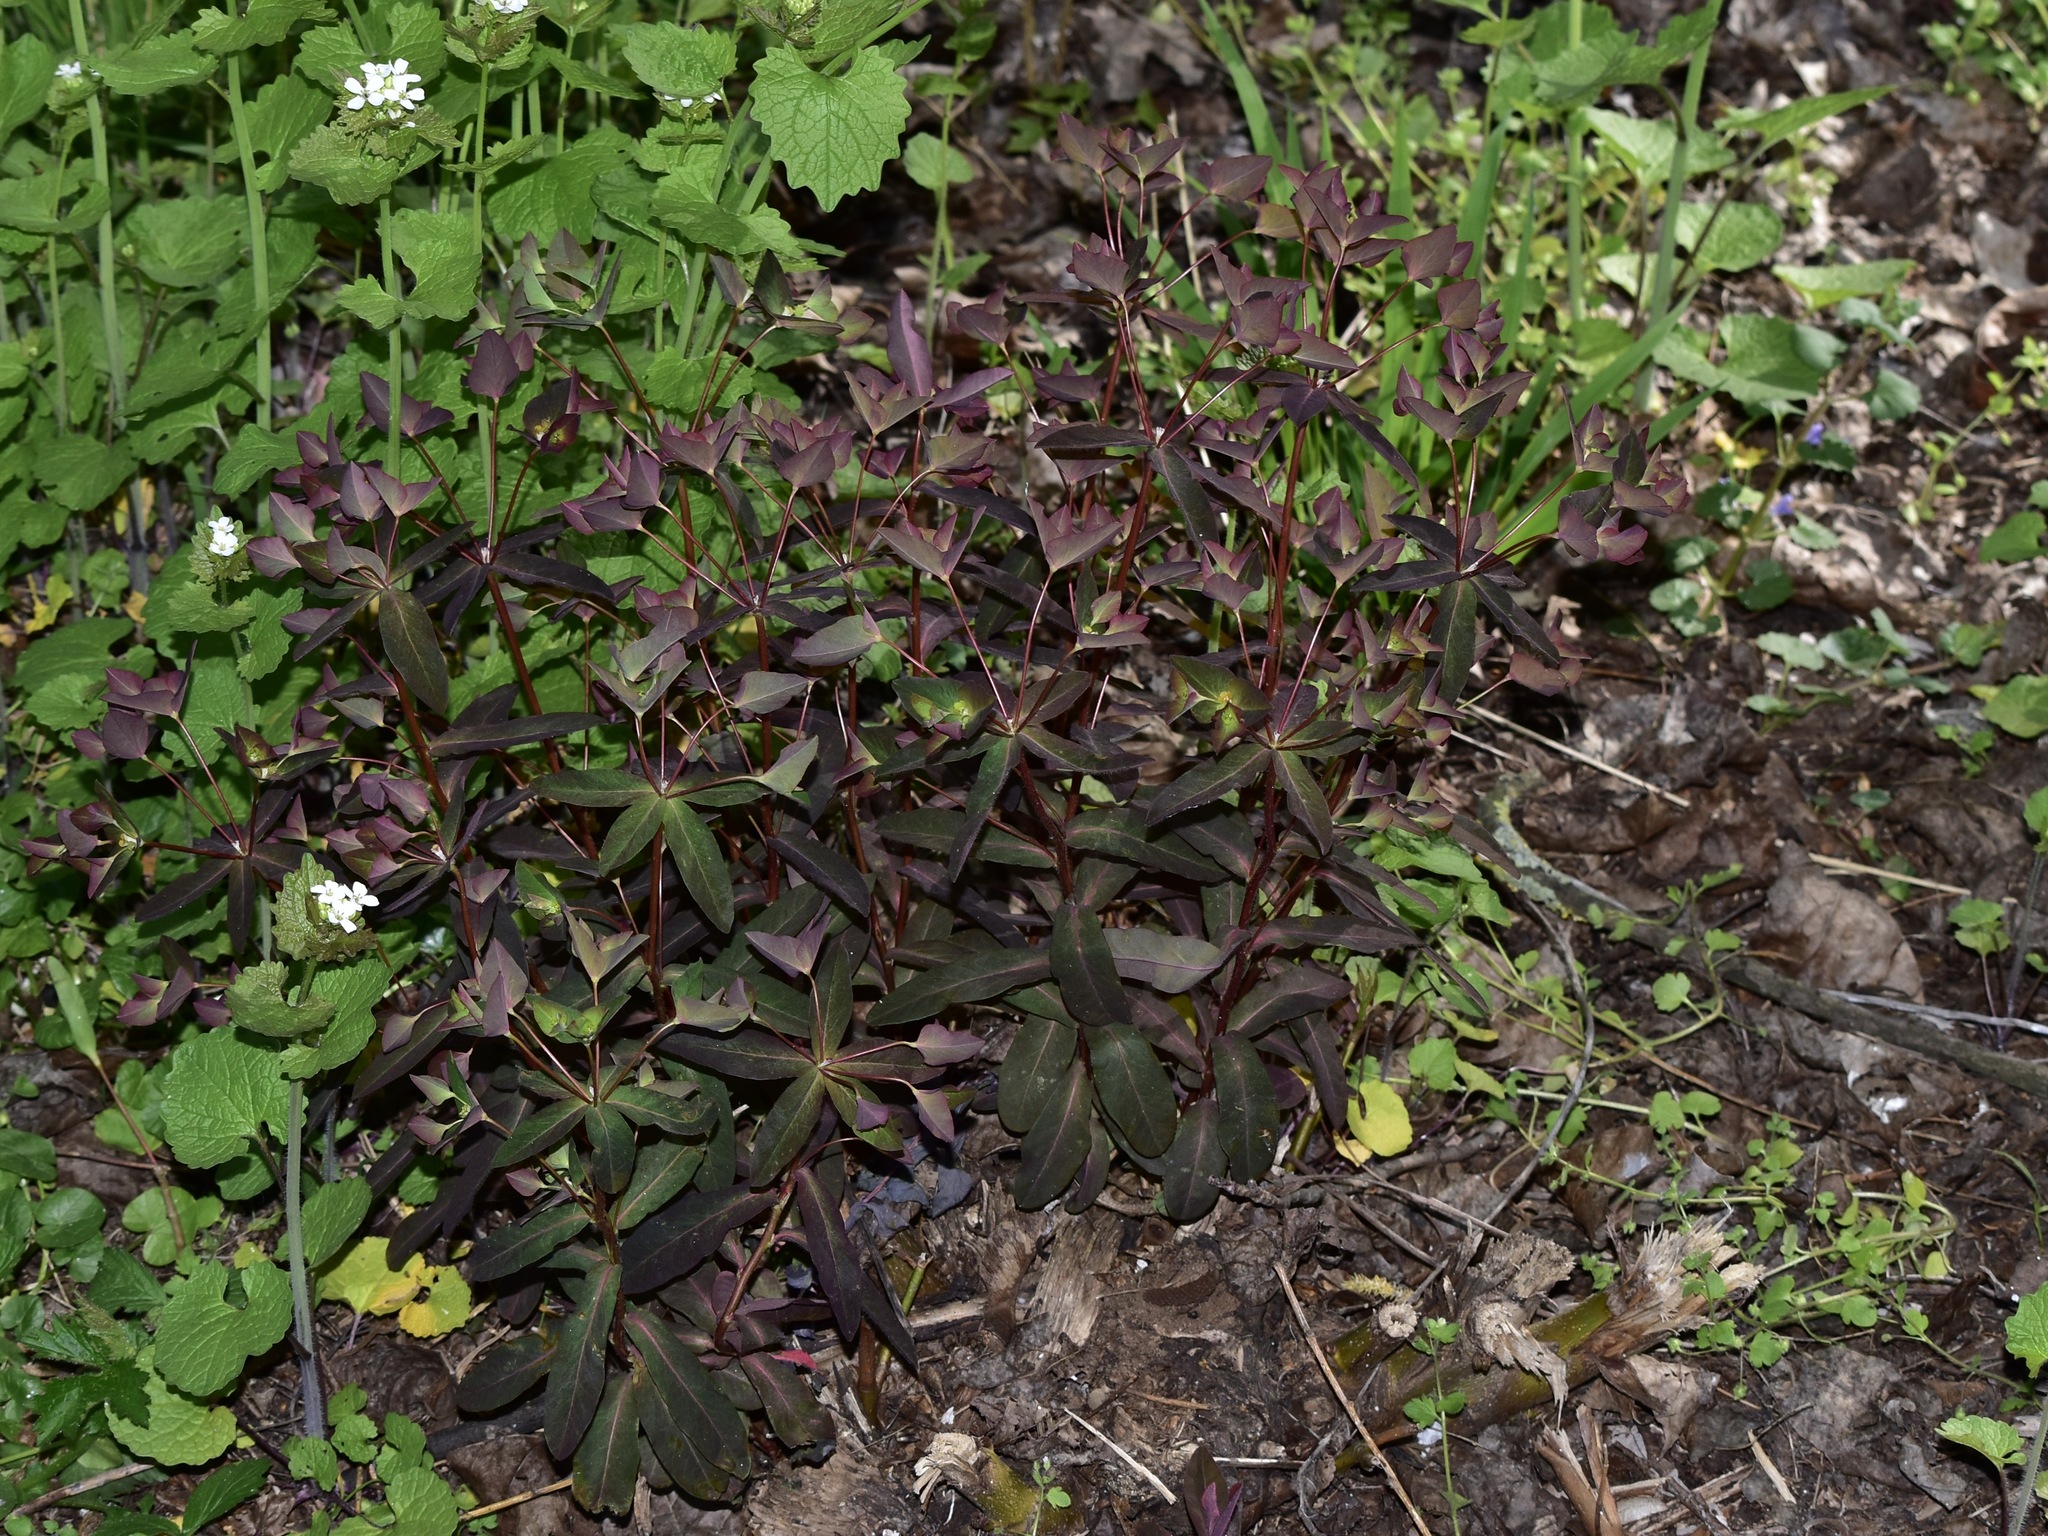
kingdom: Plantae
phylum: Tracheophyta
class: Magnoliopsida
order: Malpighiales
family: Euphorbiaceae
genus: Euphorbia
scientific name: Euphorbia dulcis
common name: Sweet spurge
